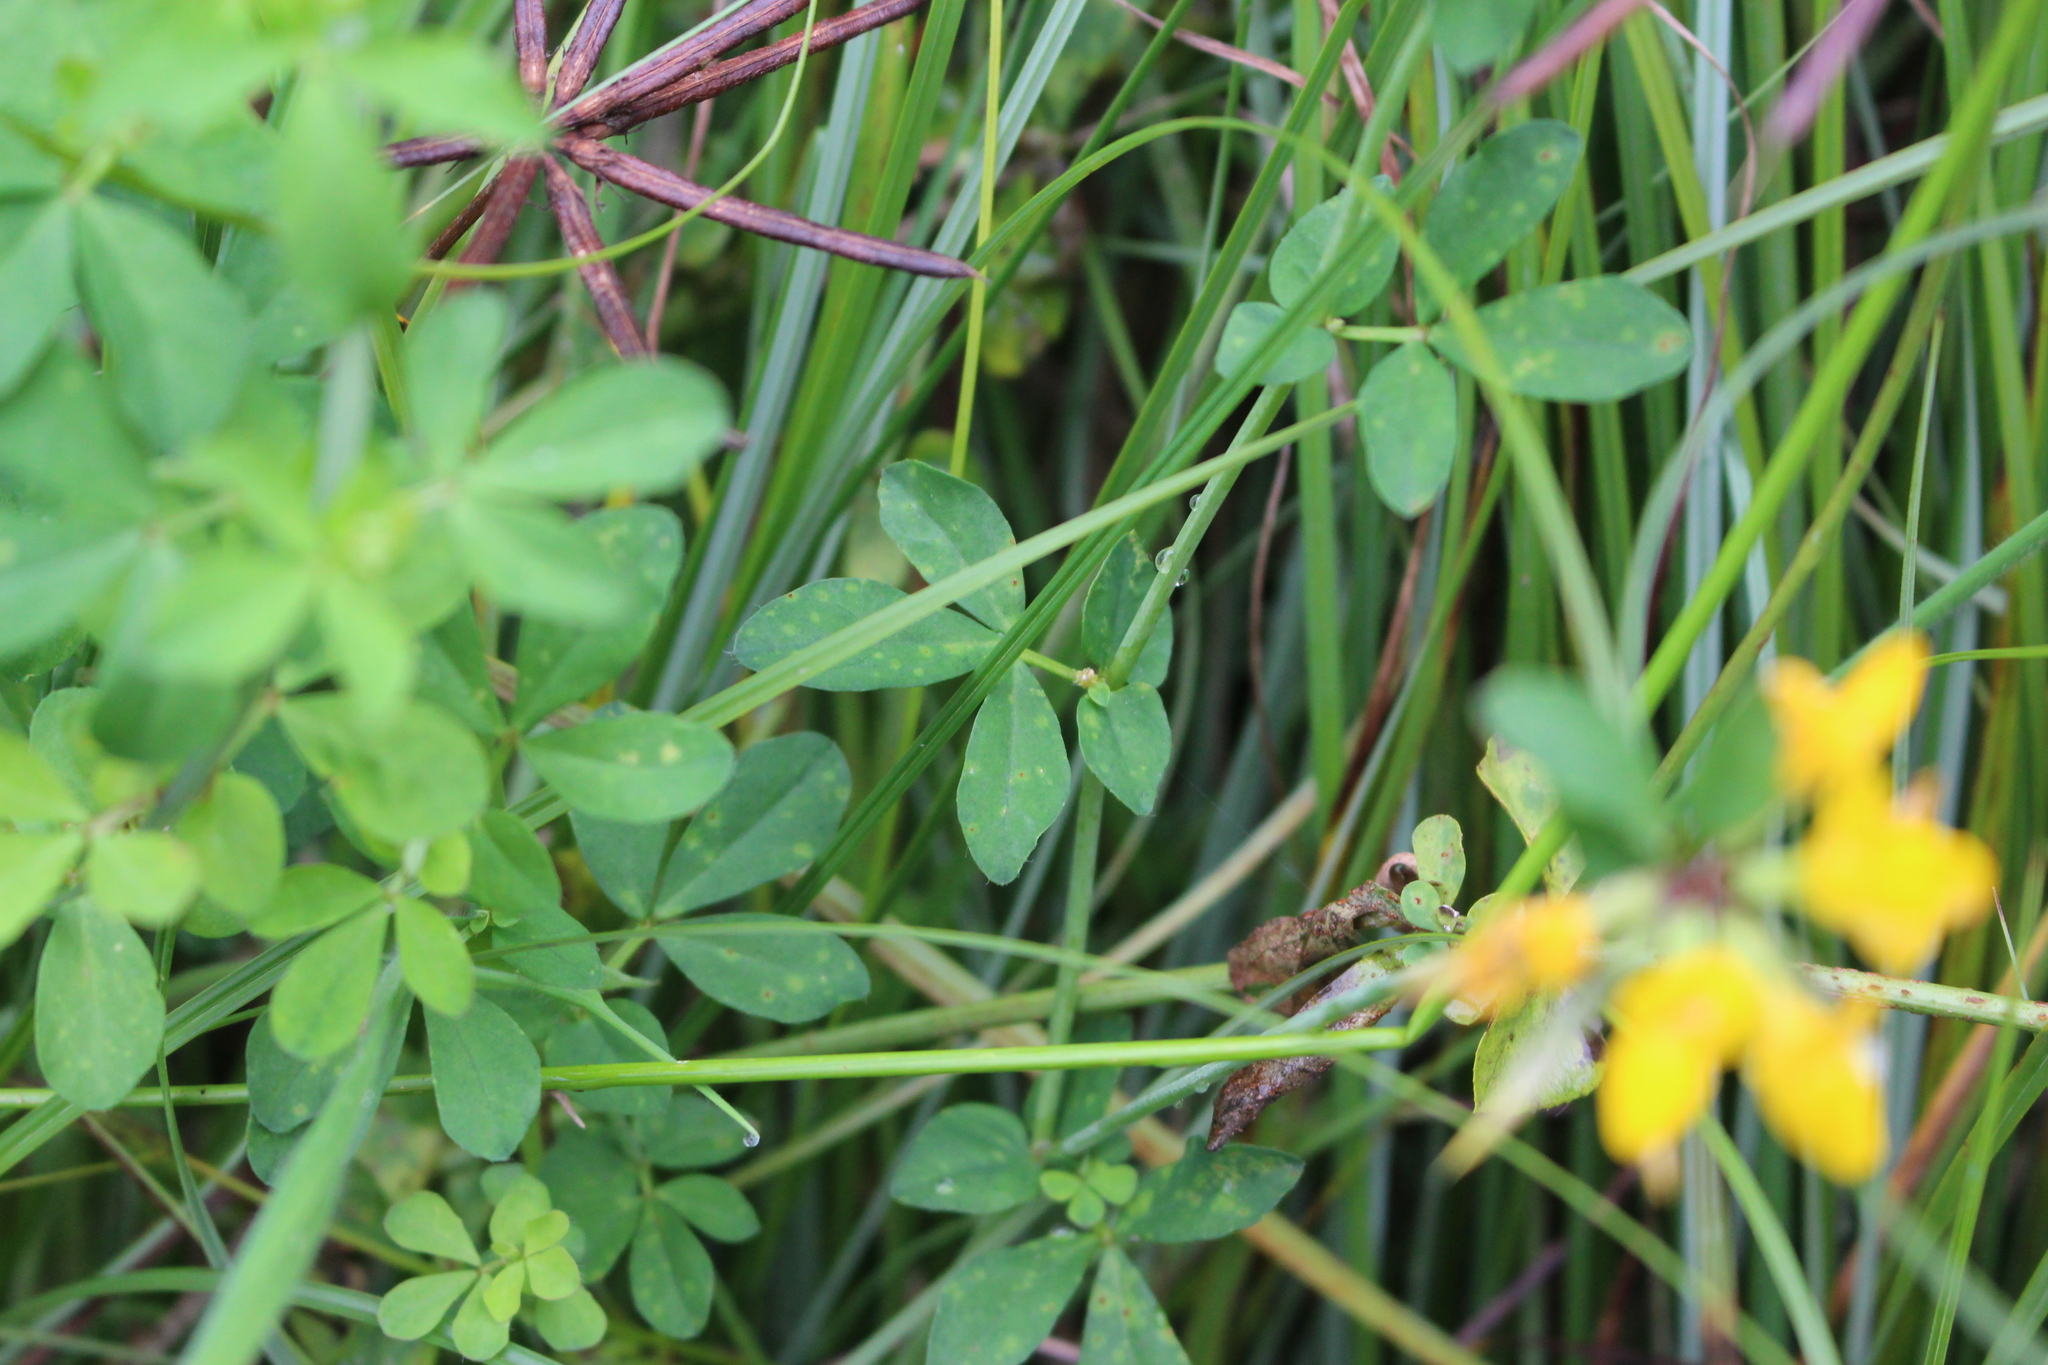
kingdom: Plantae
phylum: Tracheophyta
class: Magnoliopsida
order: Fabales
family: Fabaceae
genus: Lotus
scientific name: Lotus pedunculatus
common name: Greater birdsfoot-trefoil
